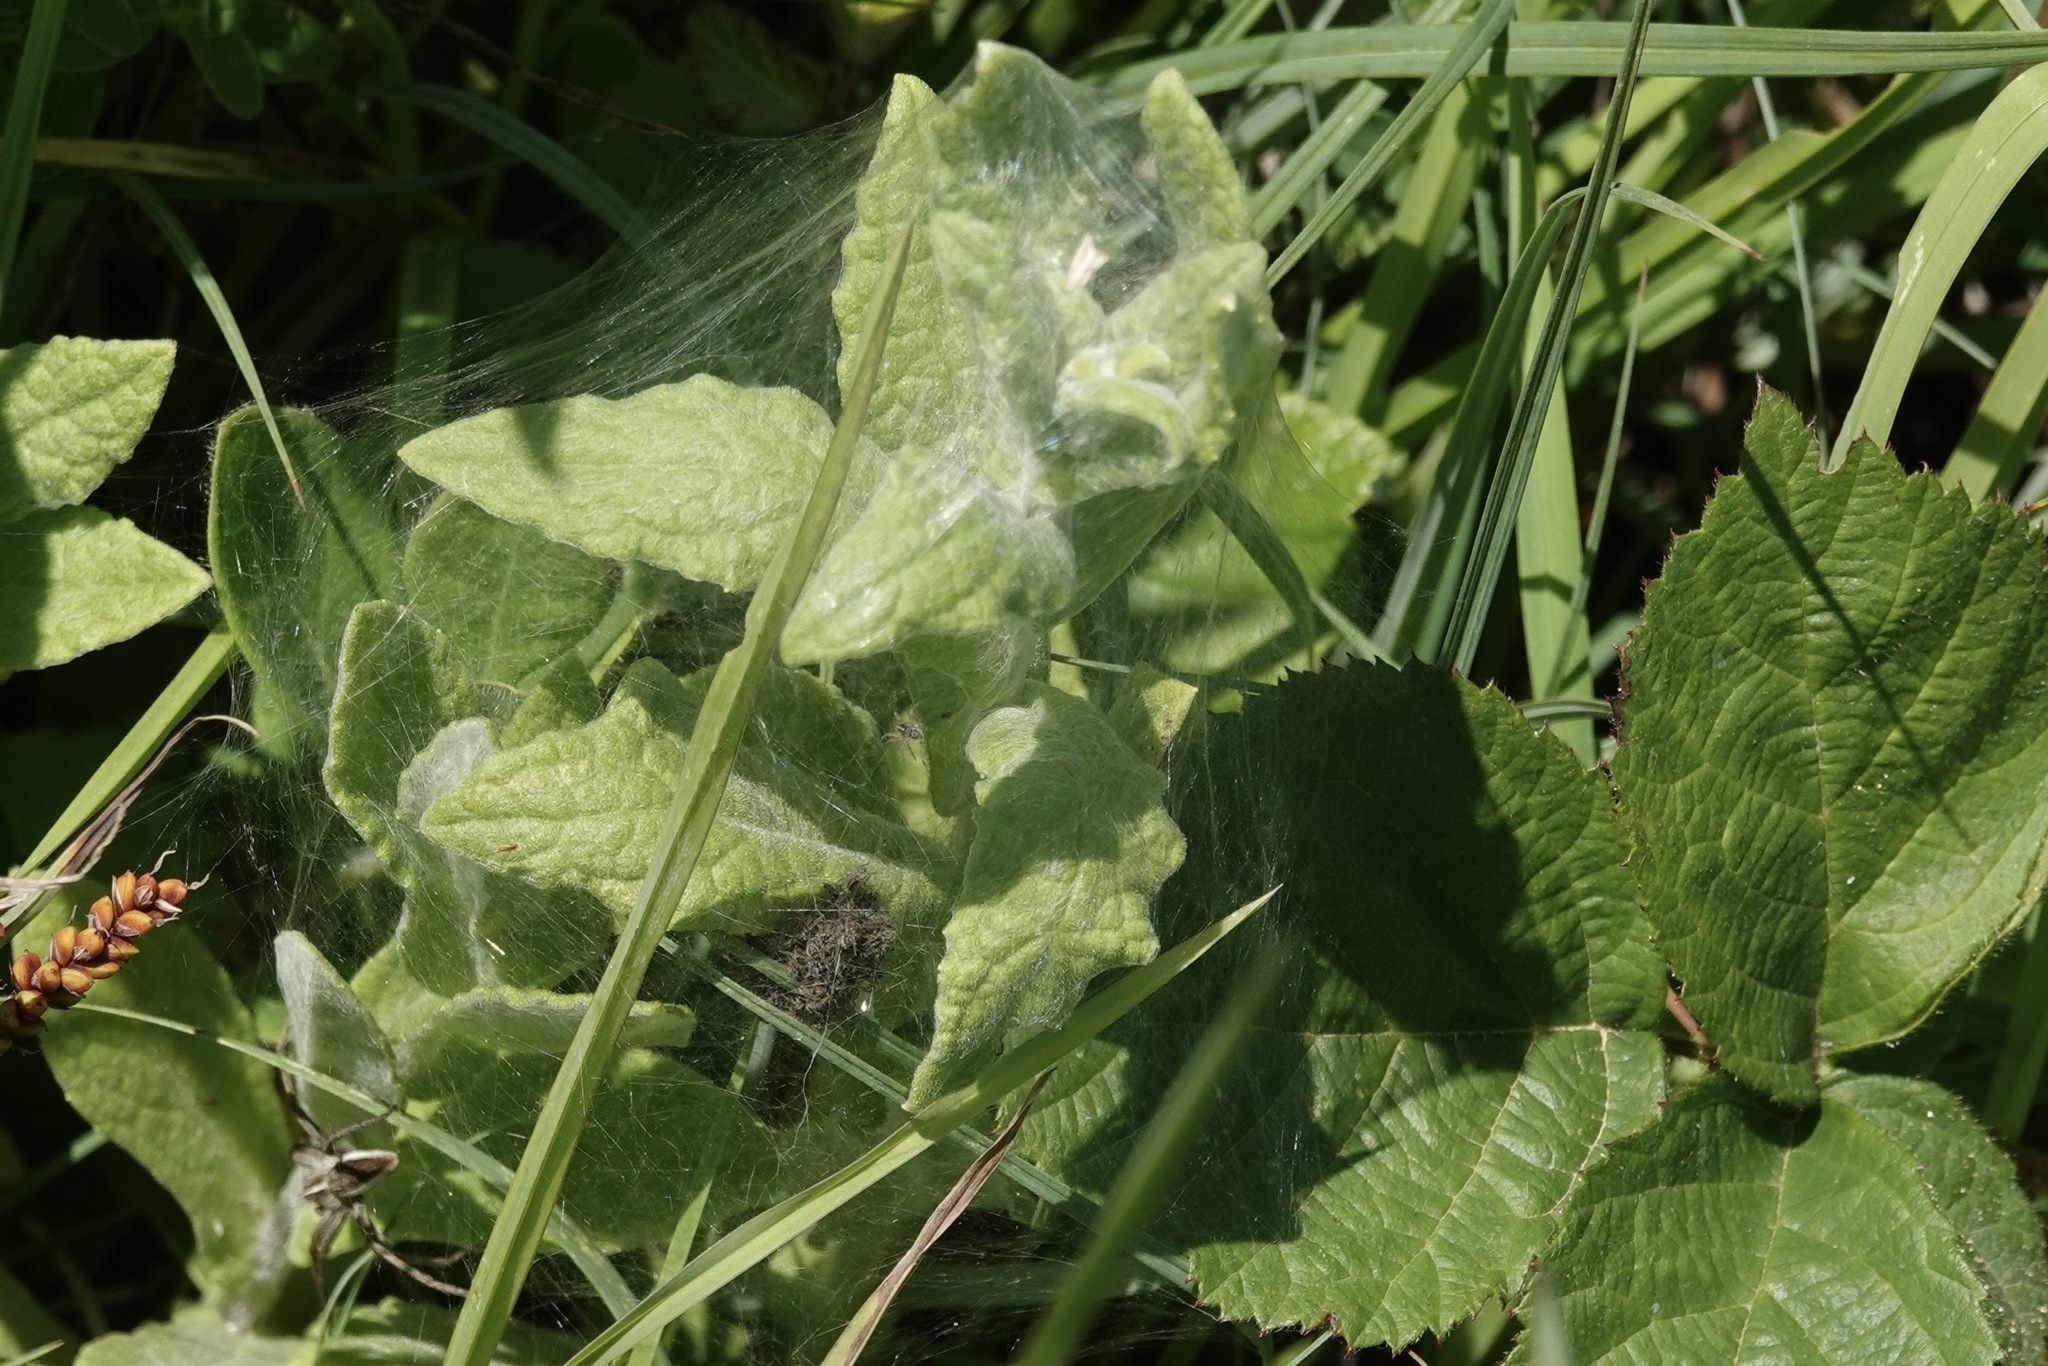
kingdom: Animalia
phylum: Arthropoda
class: Arachnida
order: Araneae
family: Pisauridae
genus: Pisaura
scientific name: Pisaura mirabilis
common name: Tent spider
